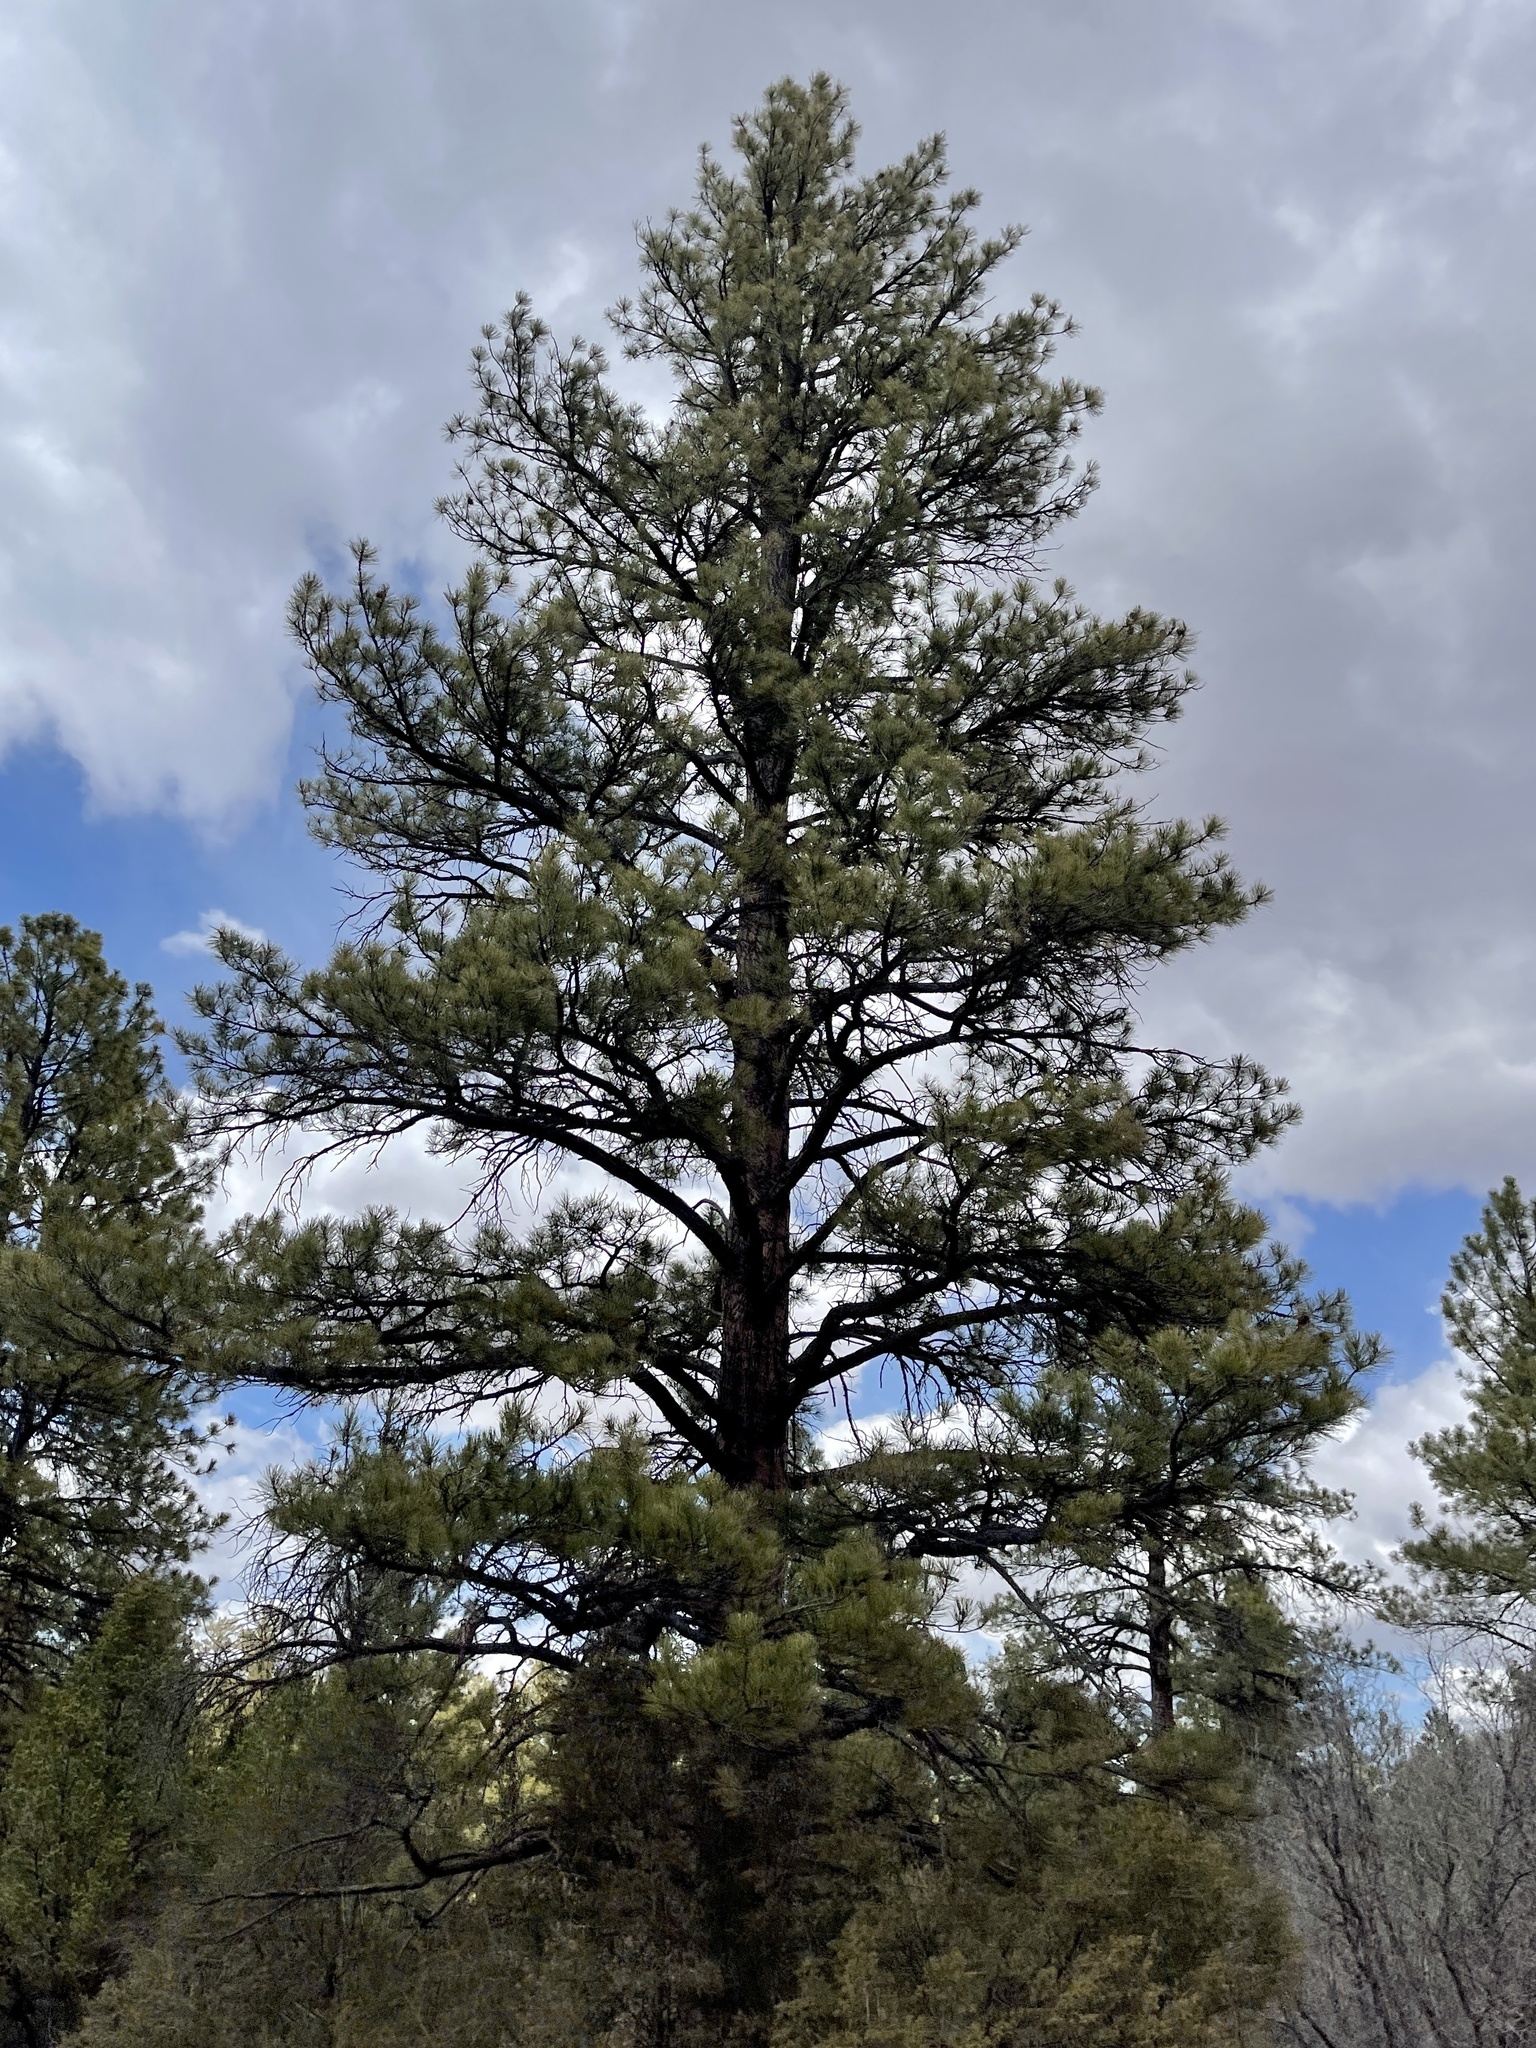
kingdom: Plantae
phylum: Tracheophyta
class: Pinopsida
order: Pinales
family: Pinaceae
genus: Pinus
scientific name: Pinus ponderosa
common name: Western yellow-pine
